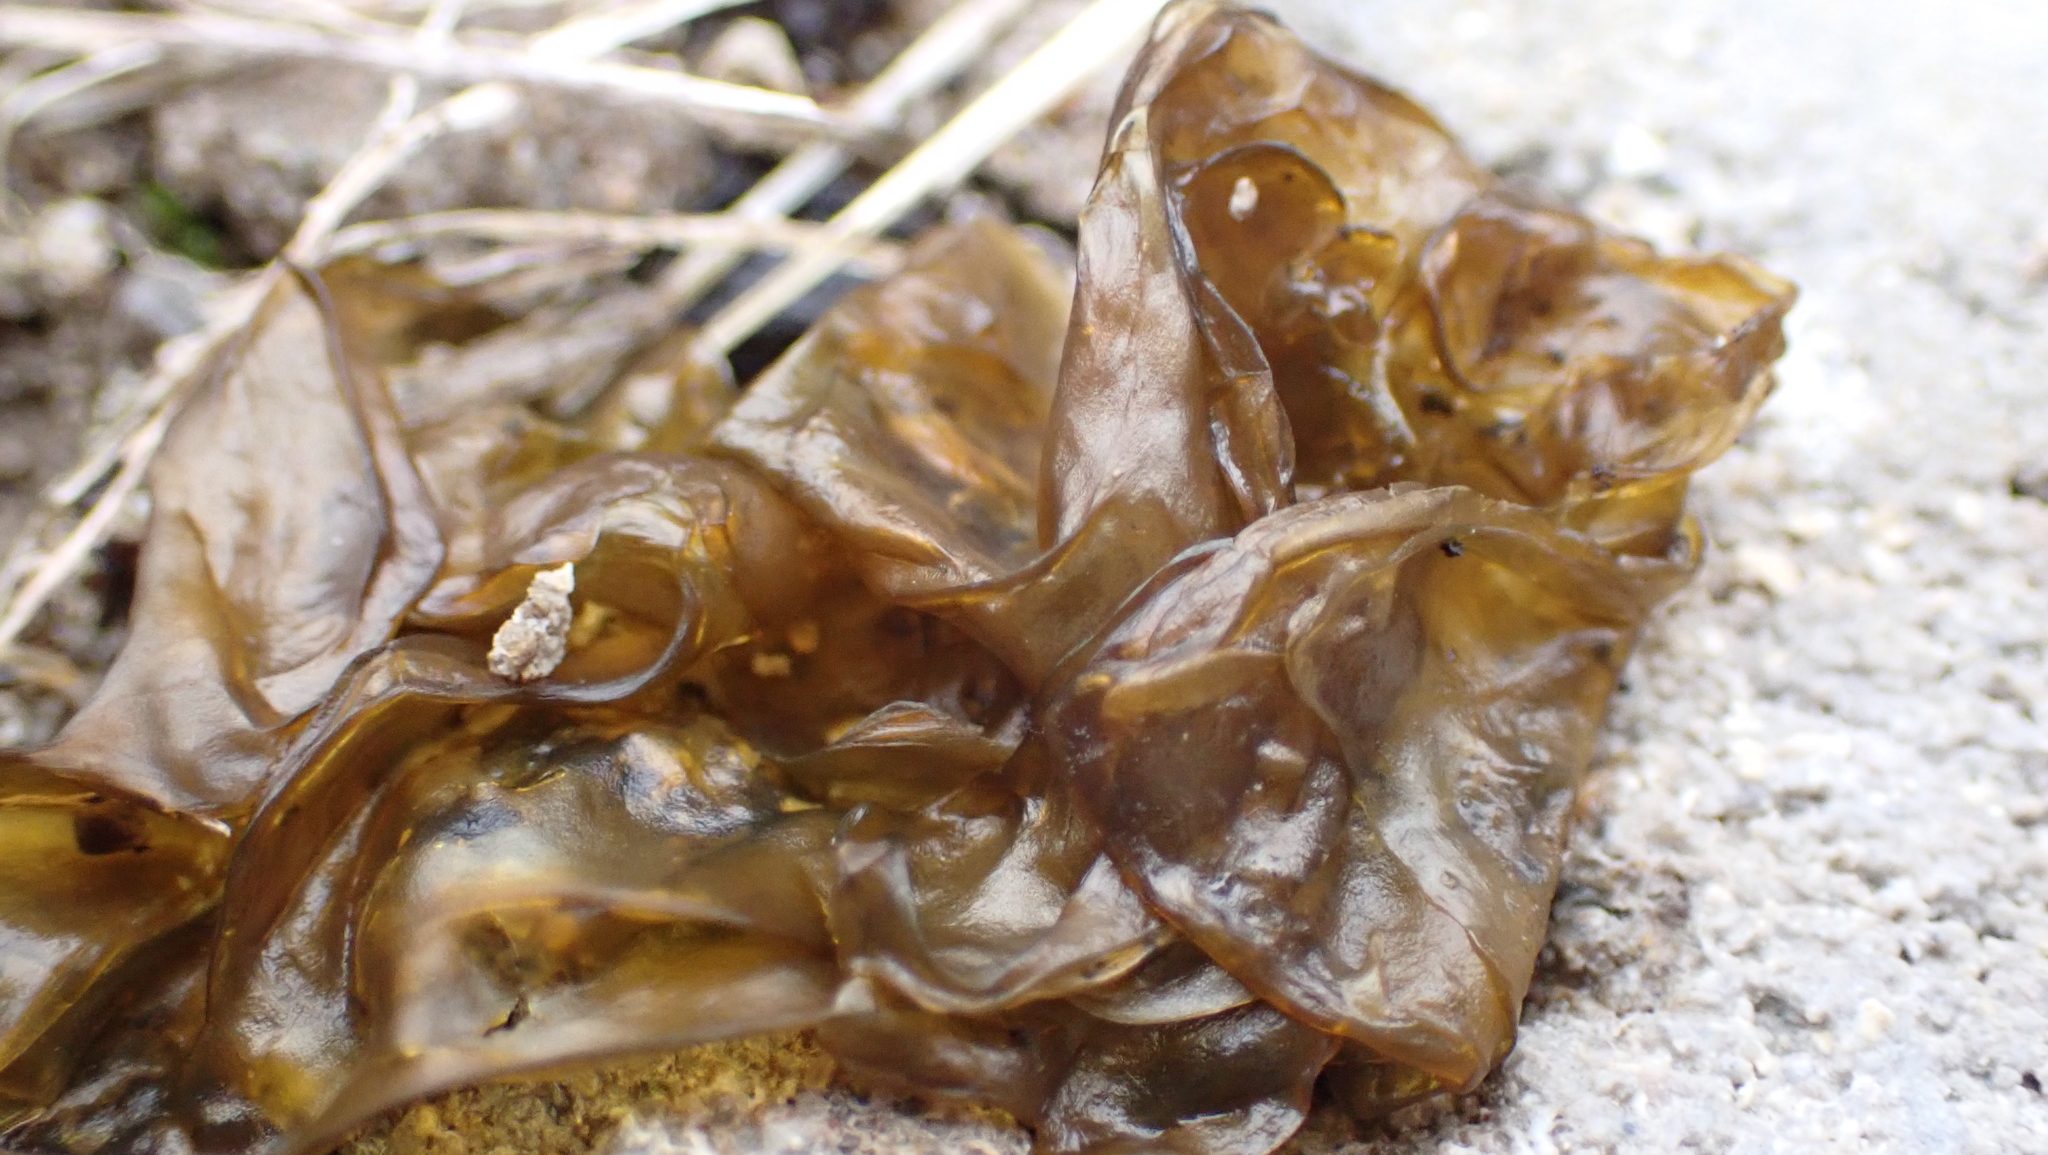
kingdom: Bacteria
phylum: Cyanobacteria
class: Cyanobacteriia
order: Cyanobacteriales
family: Nostocaceae
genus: Nostoc
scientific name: Nostoc commune
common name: Star jelly
